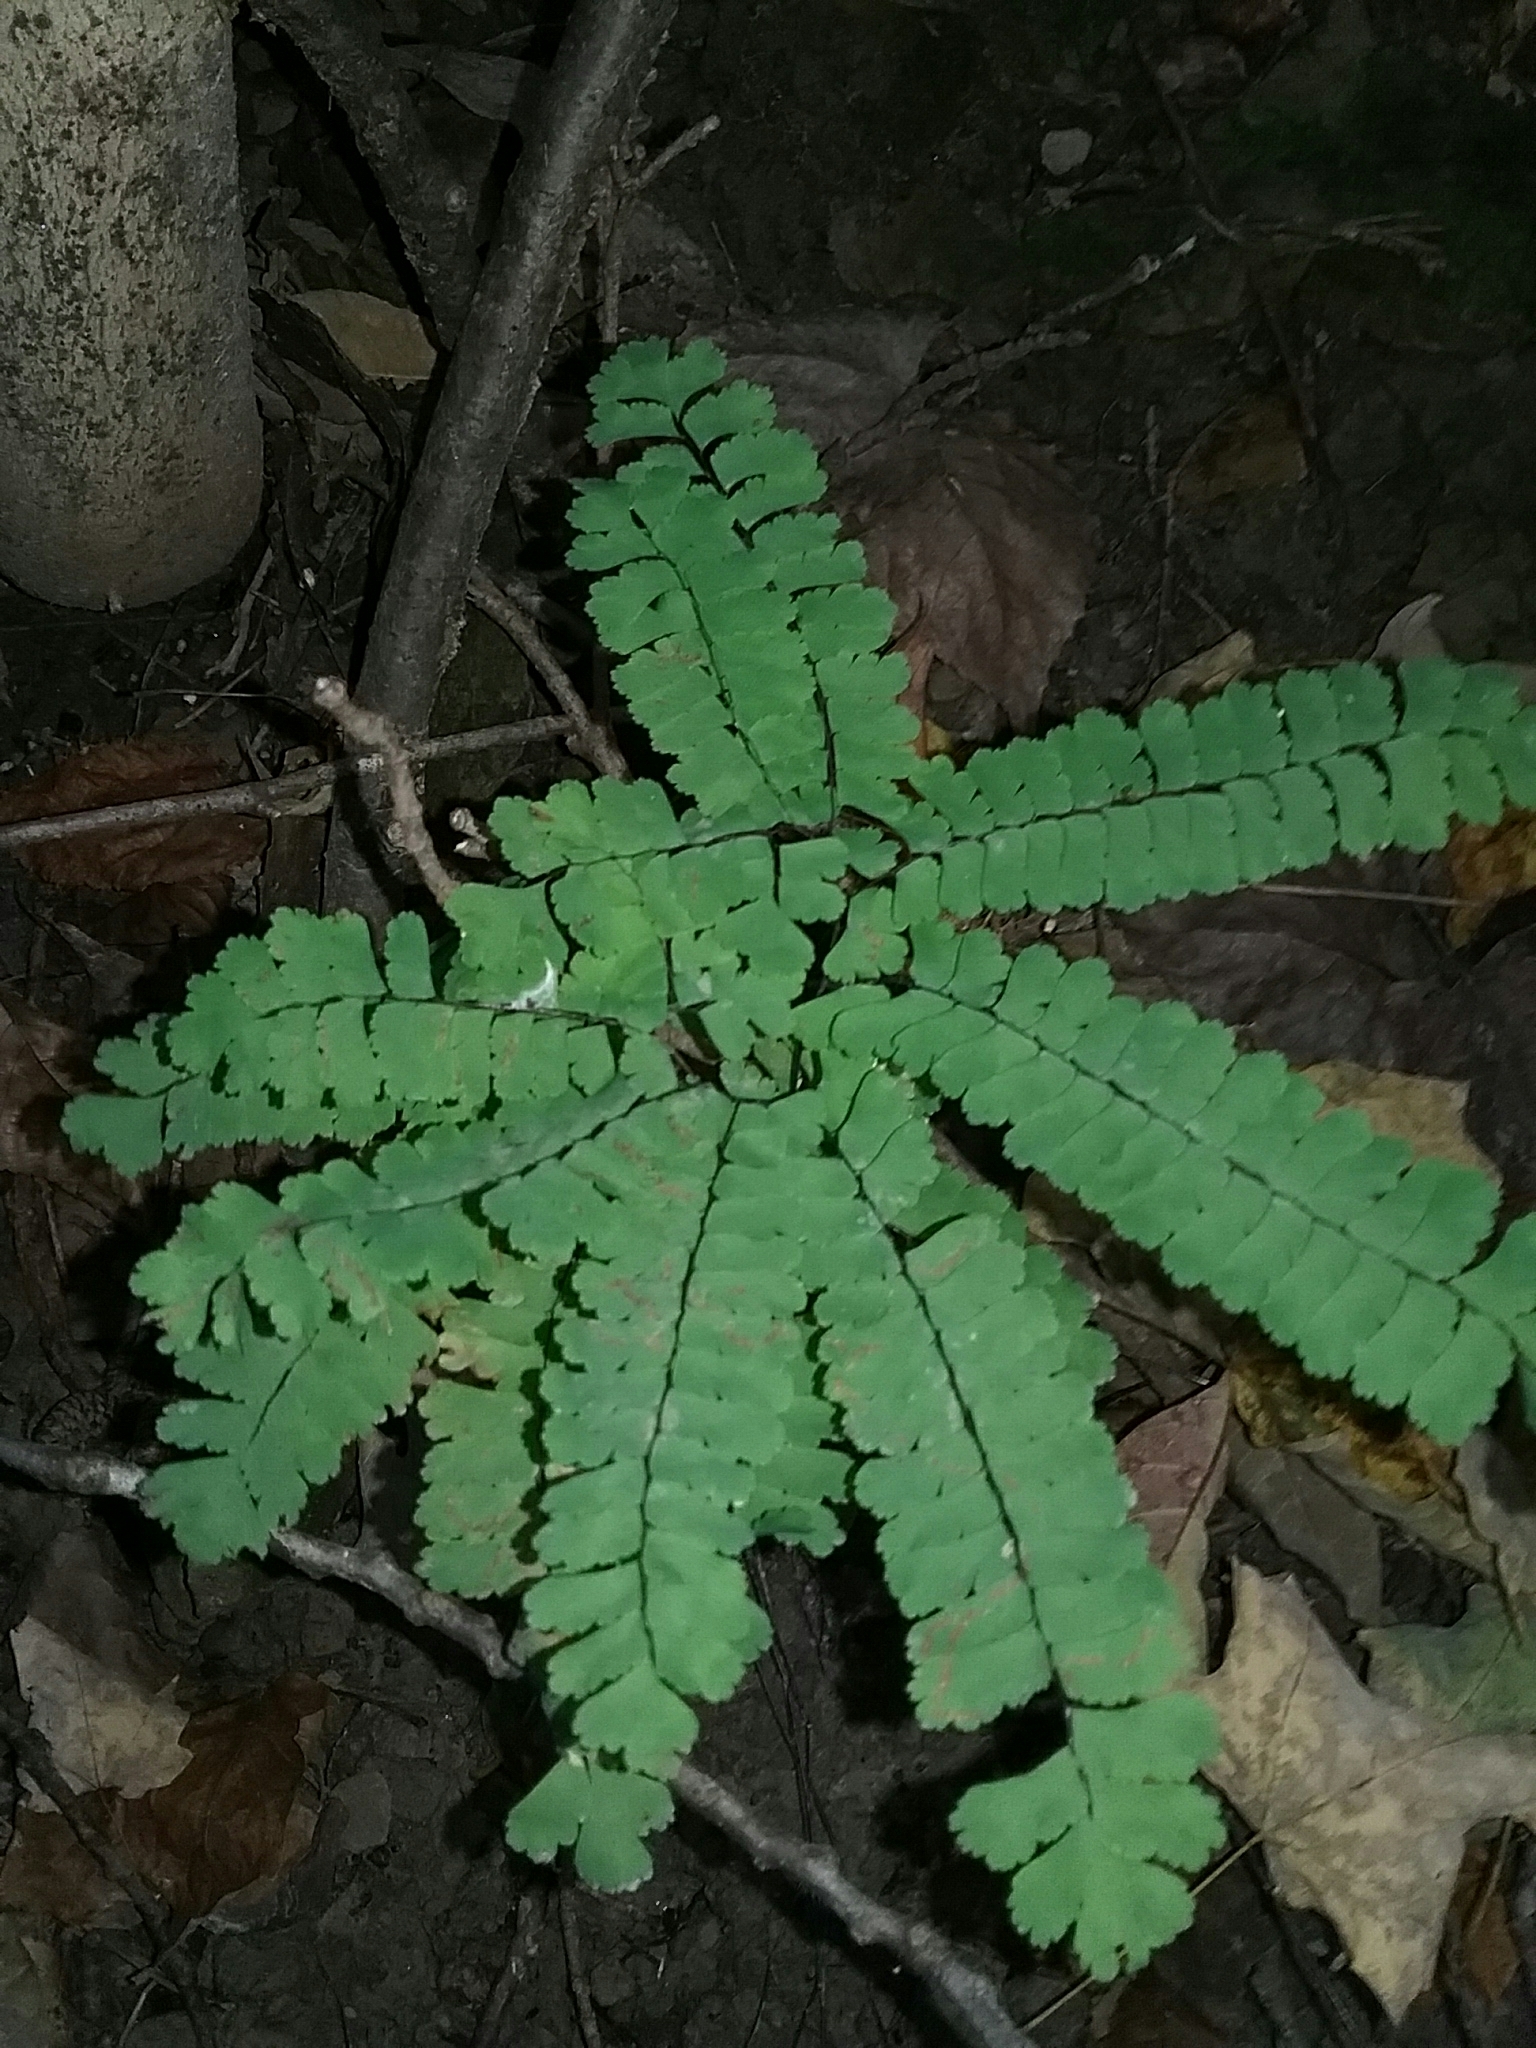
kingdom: Plantae
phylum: Tracheophyta
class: Polypodiopsida
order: Polypodiales
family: Pteridaceae
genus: Adiantum
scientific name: Adiantum pedatum
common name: Five-finger fern
